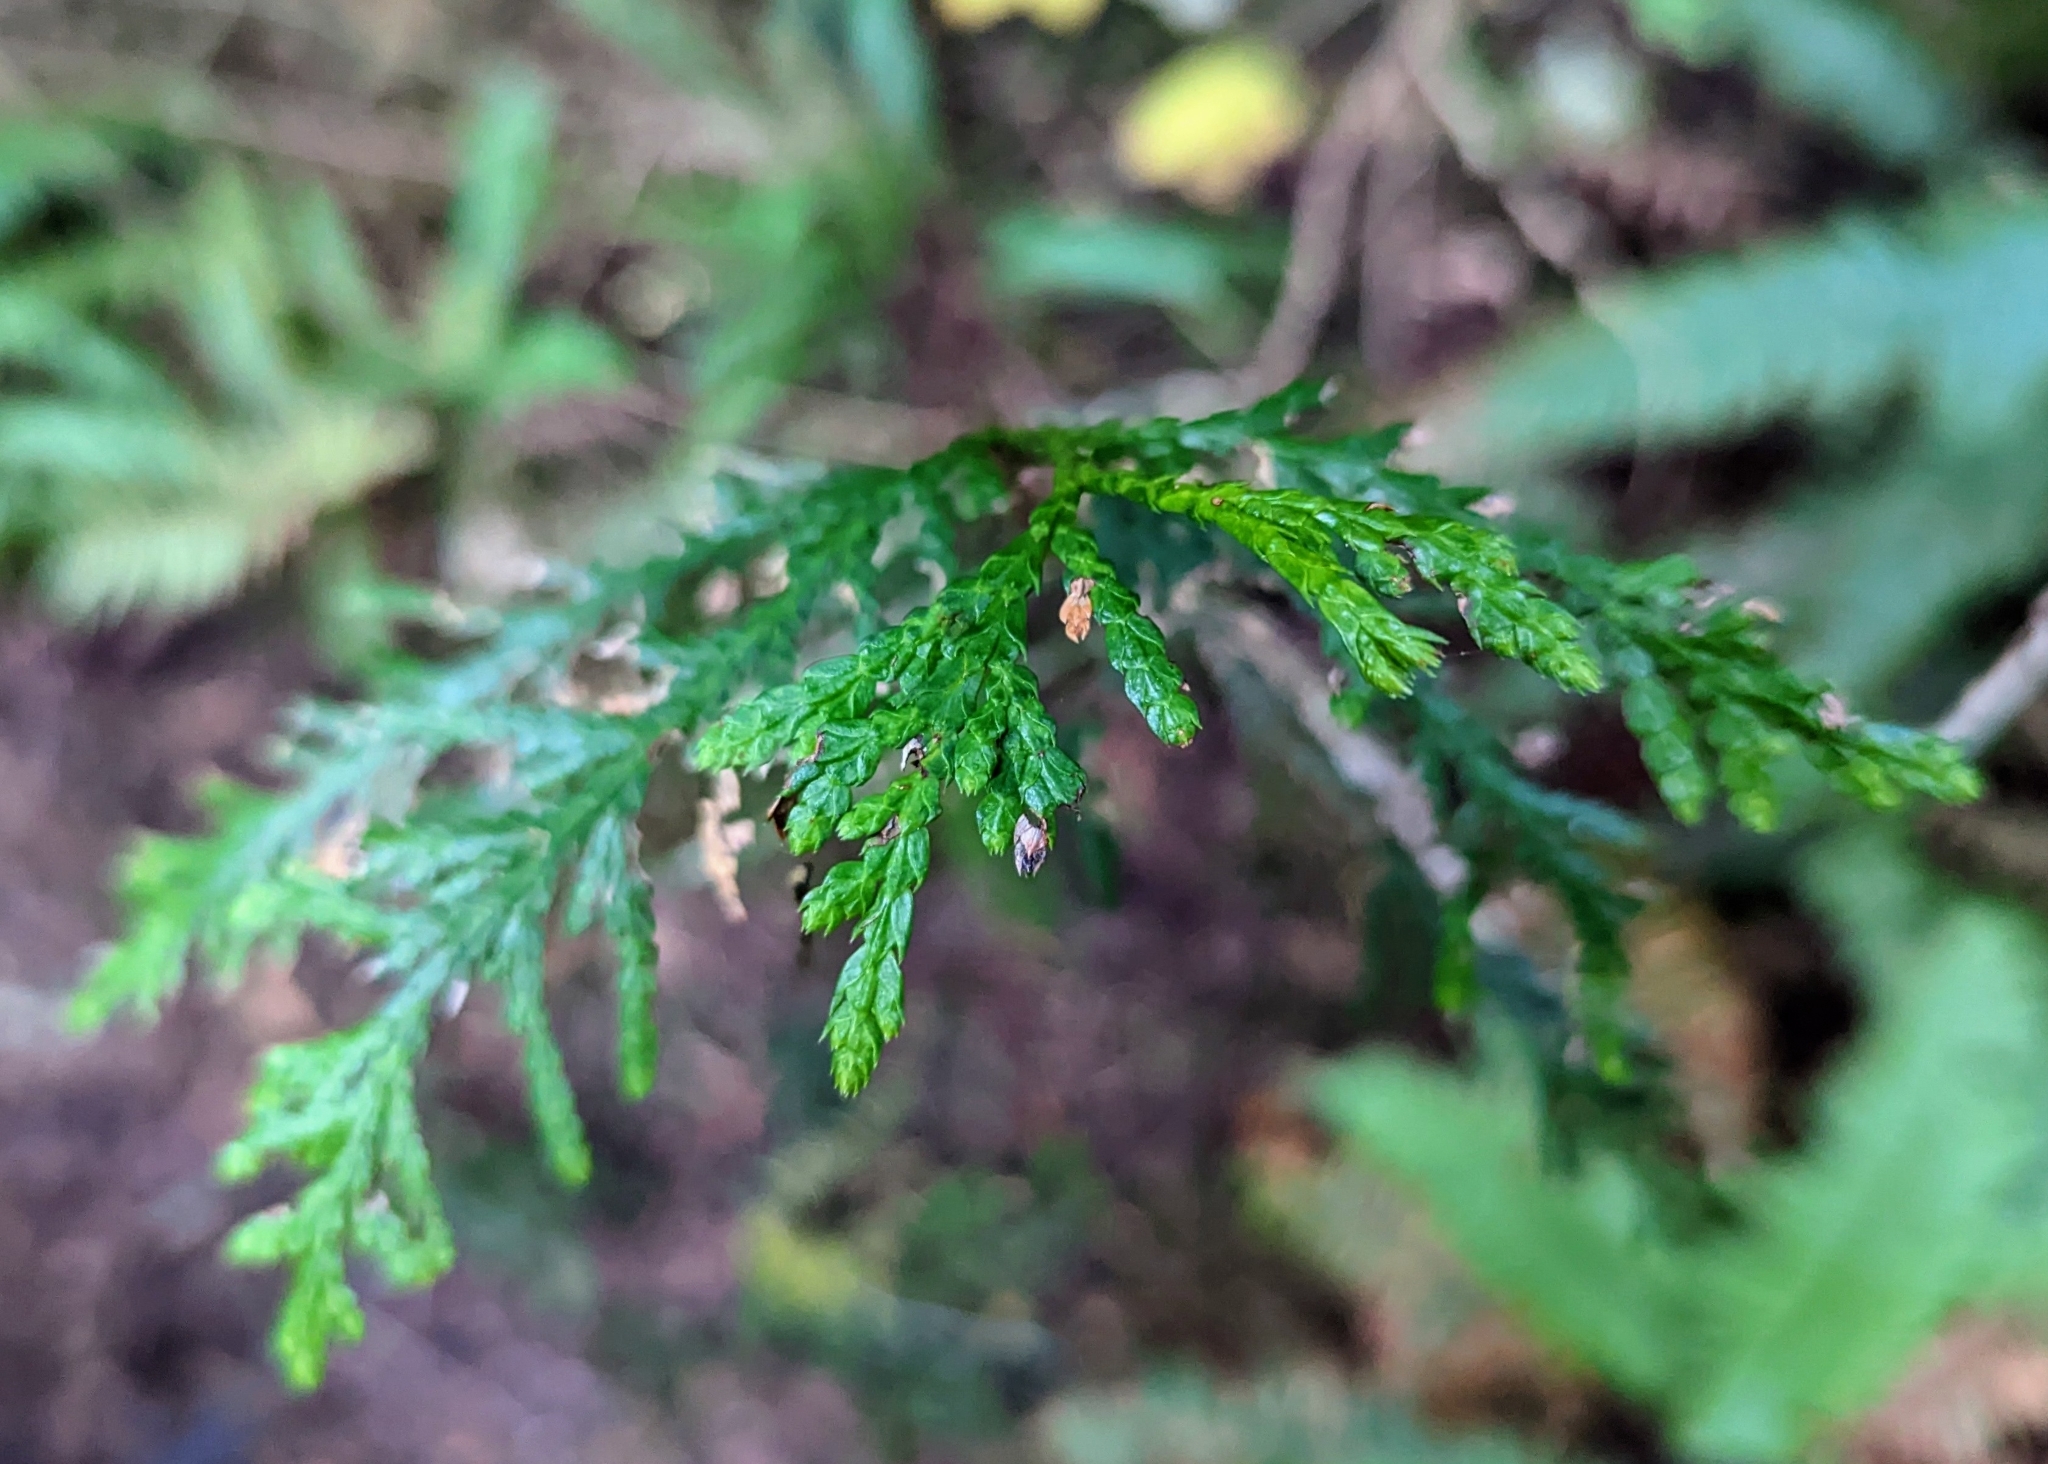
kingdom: Plantae
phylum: Tracheophyta
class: Pinopsida
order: Pinales
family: Cupressaceae
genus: Thuja
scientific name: Thuja plicata
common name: Western red-cedar
